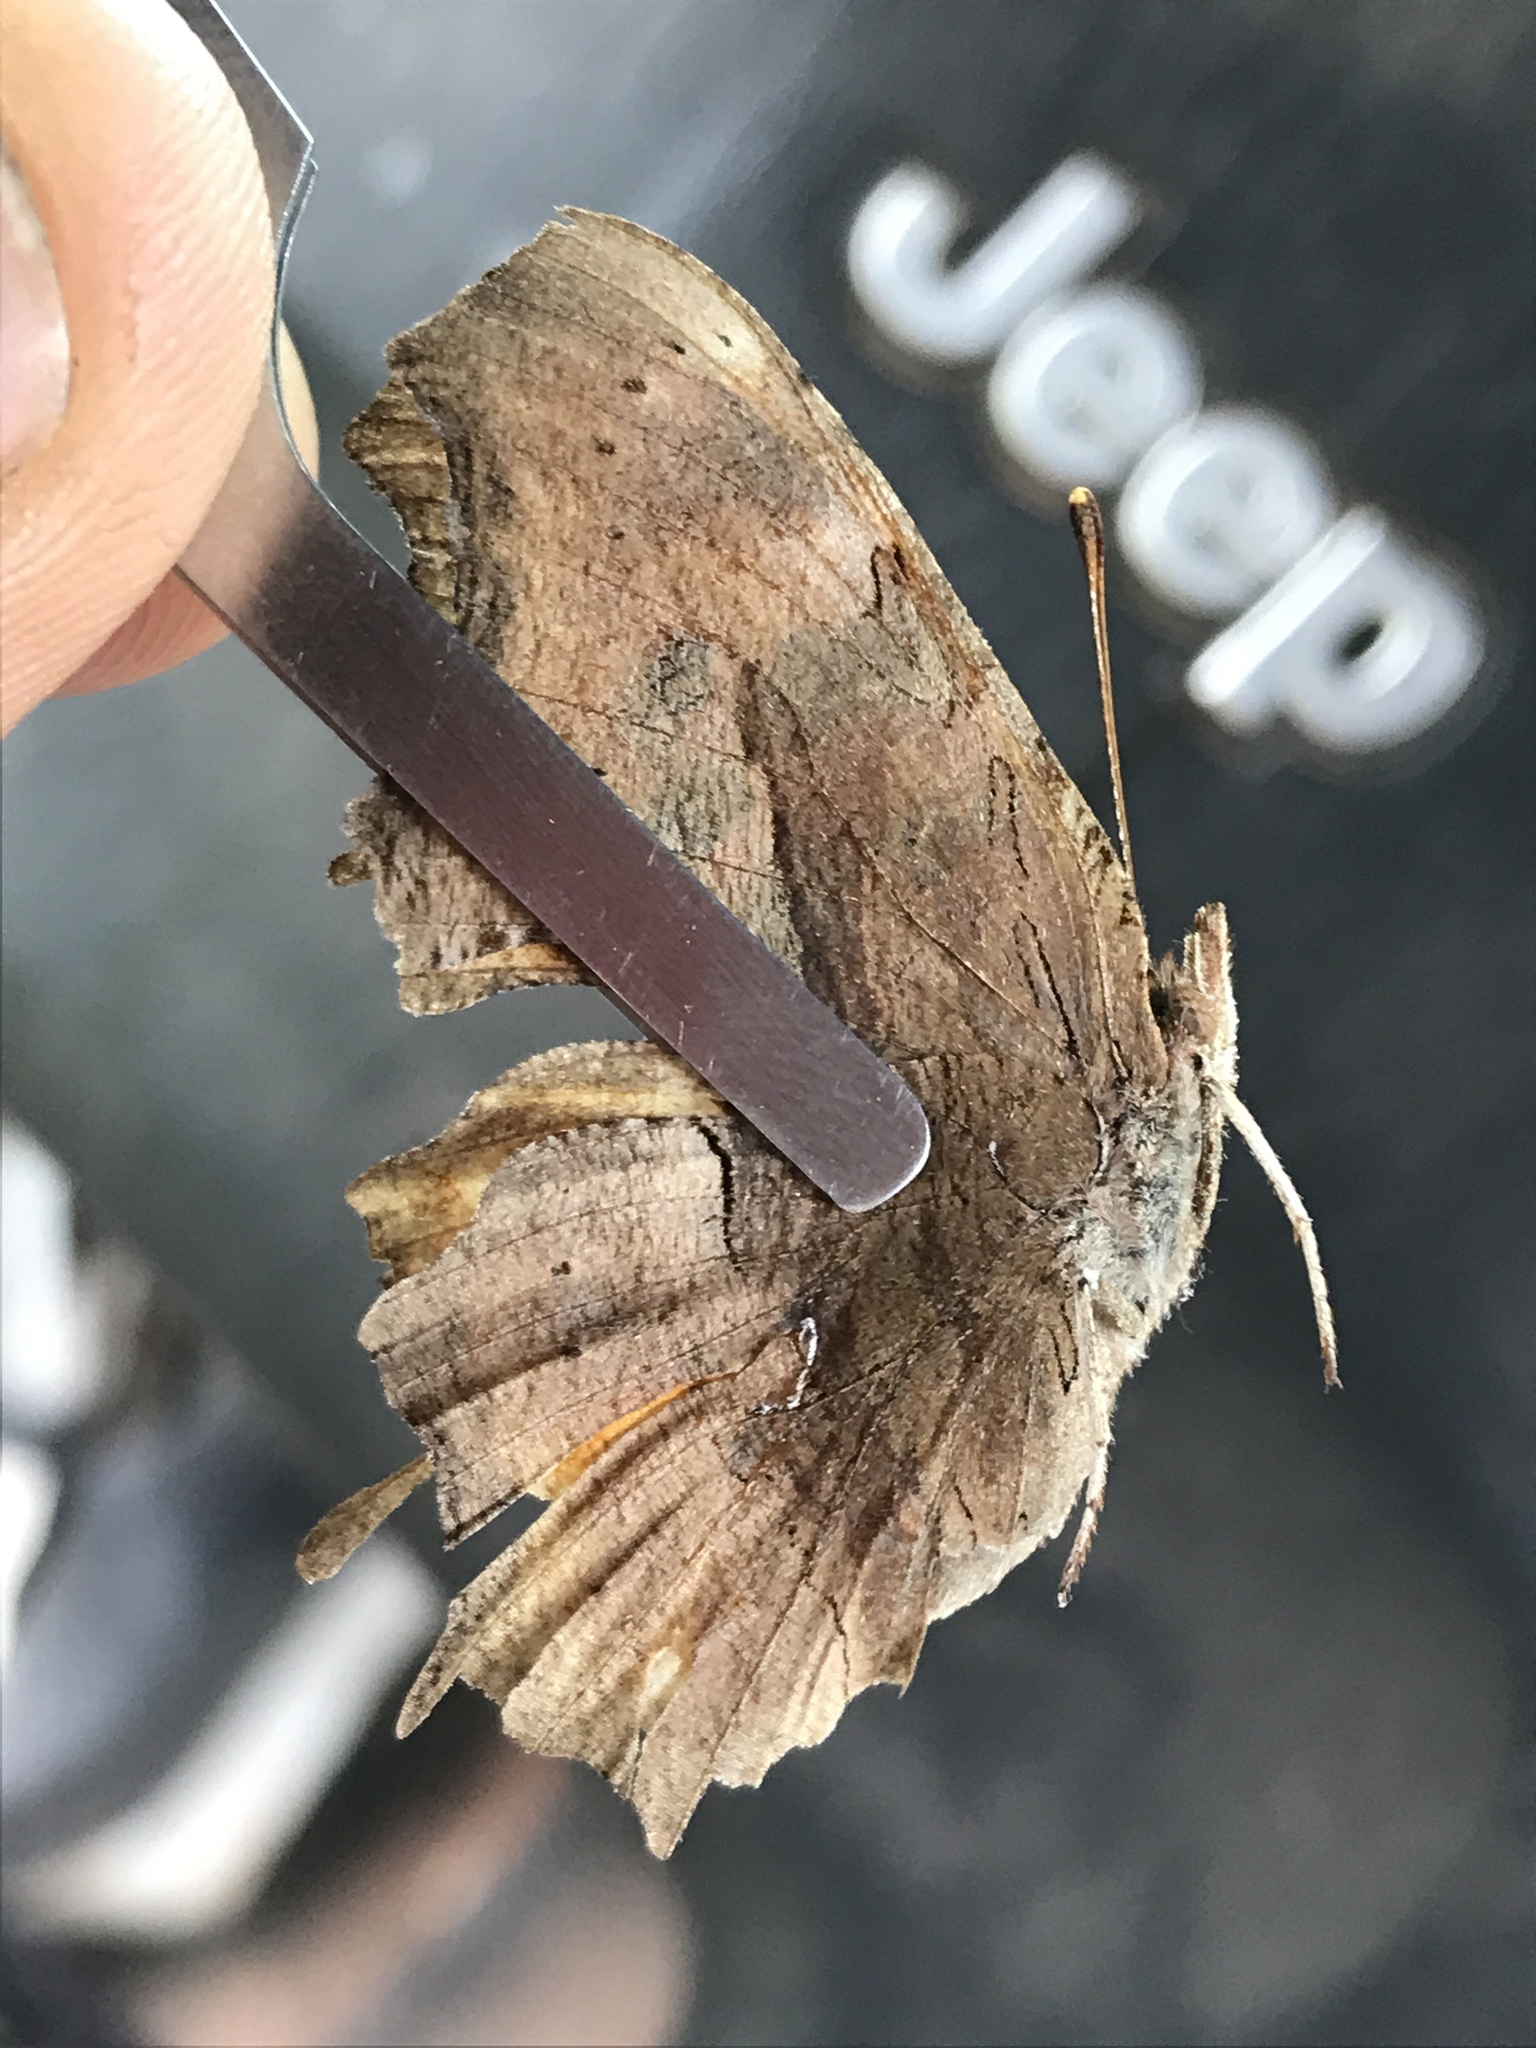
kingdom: Animalia
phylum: Arthropoda
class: Insecta
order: Lepidoptera
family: Nymphalidae
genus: Polygonia
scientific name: Polygonia satyrus
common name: Satyr angle wing
